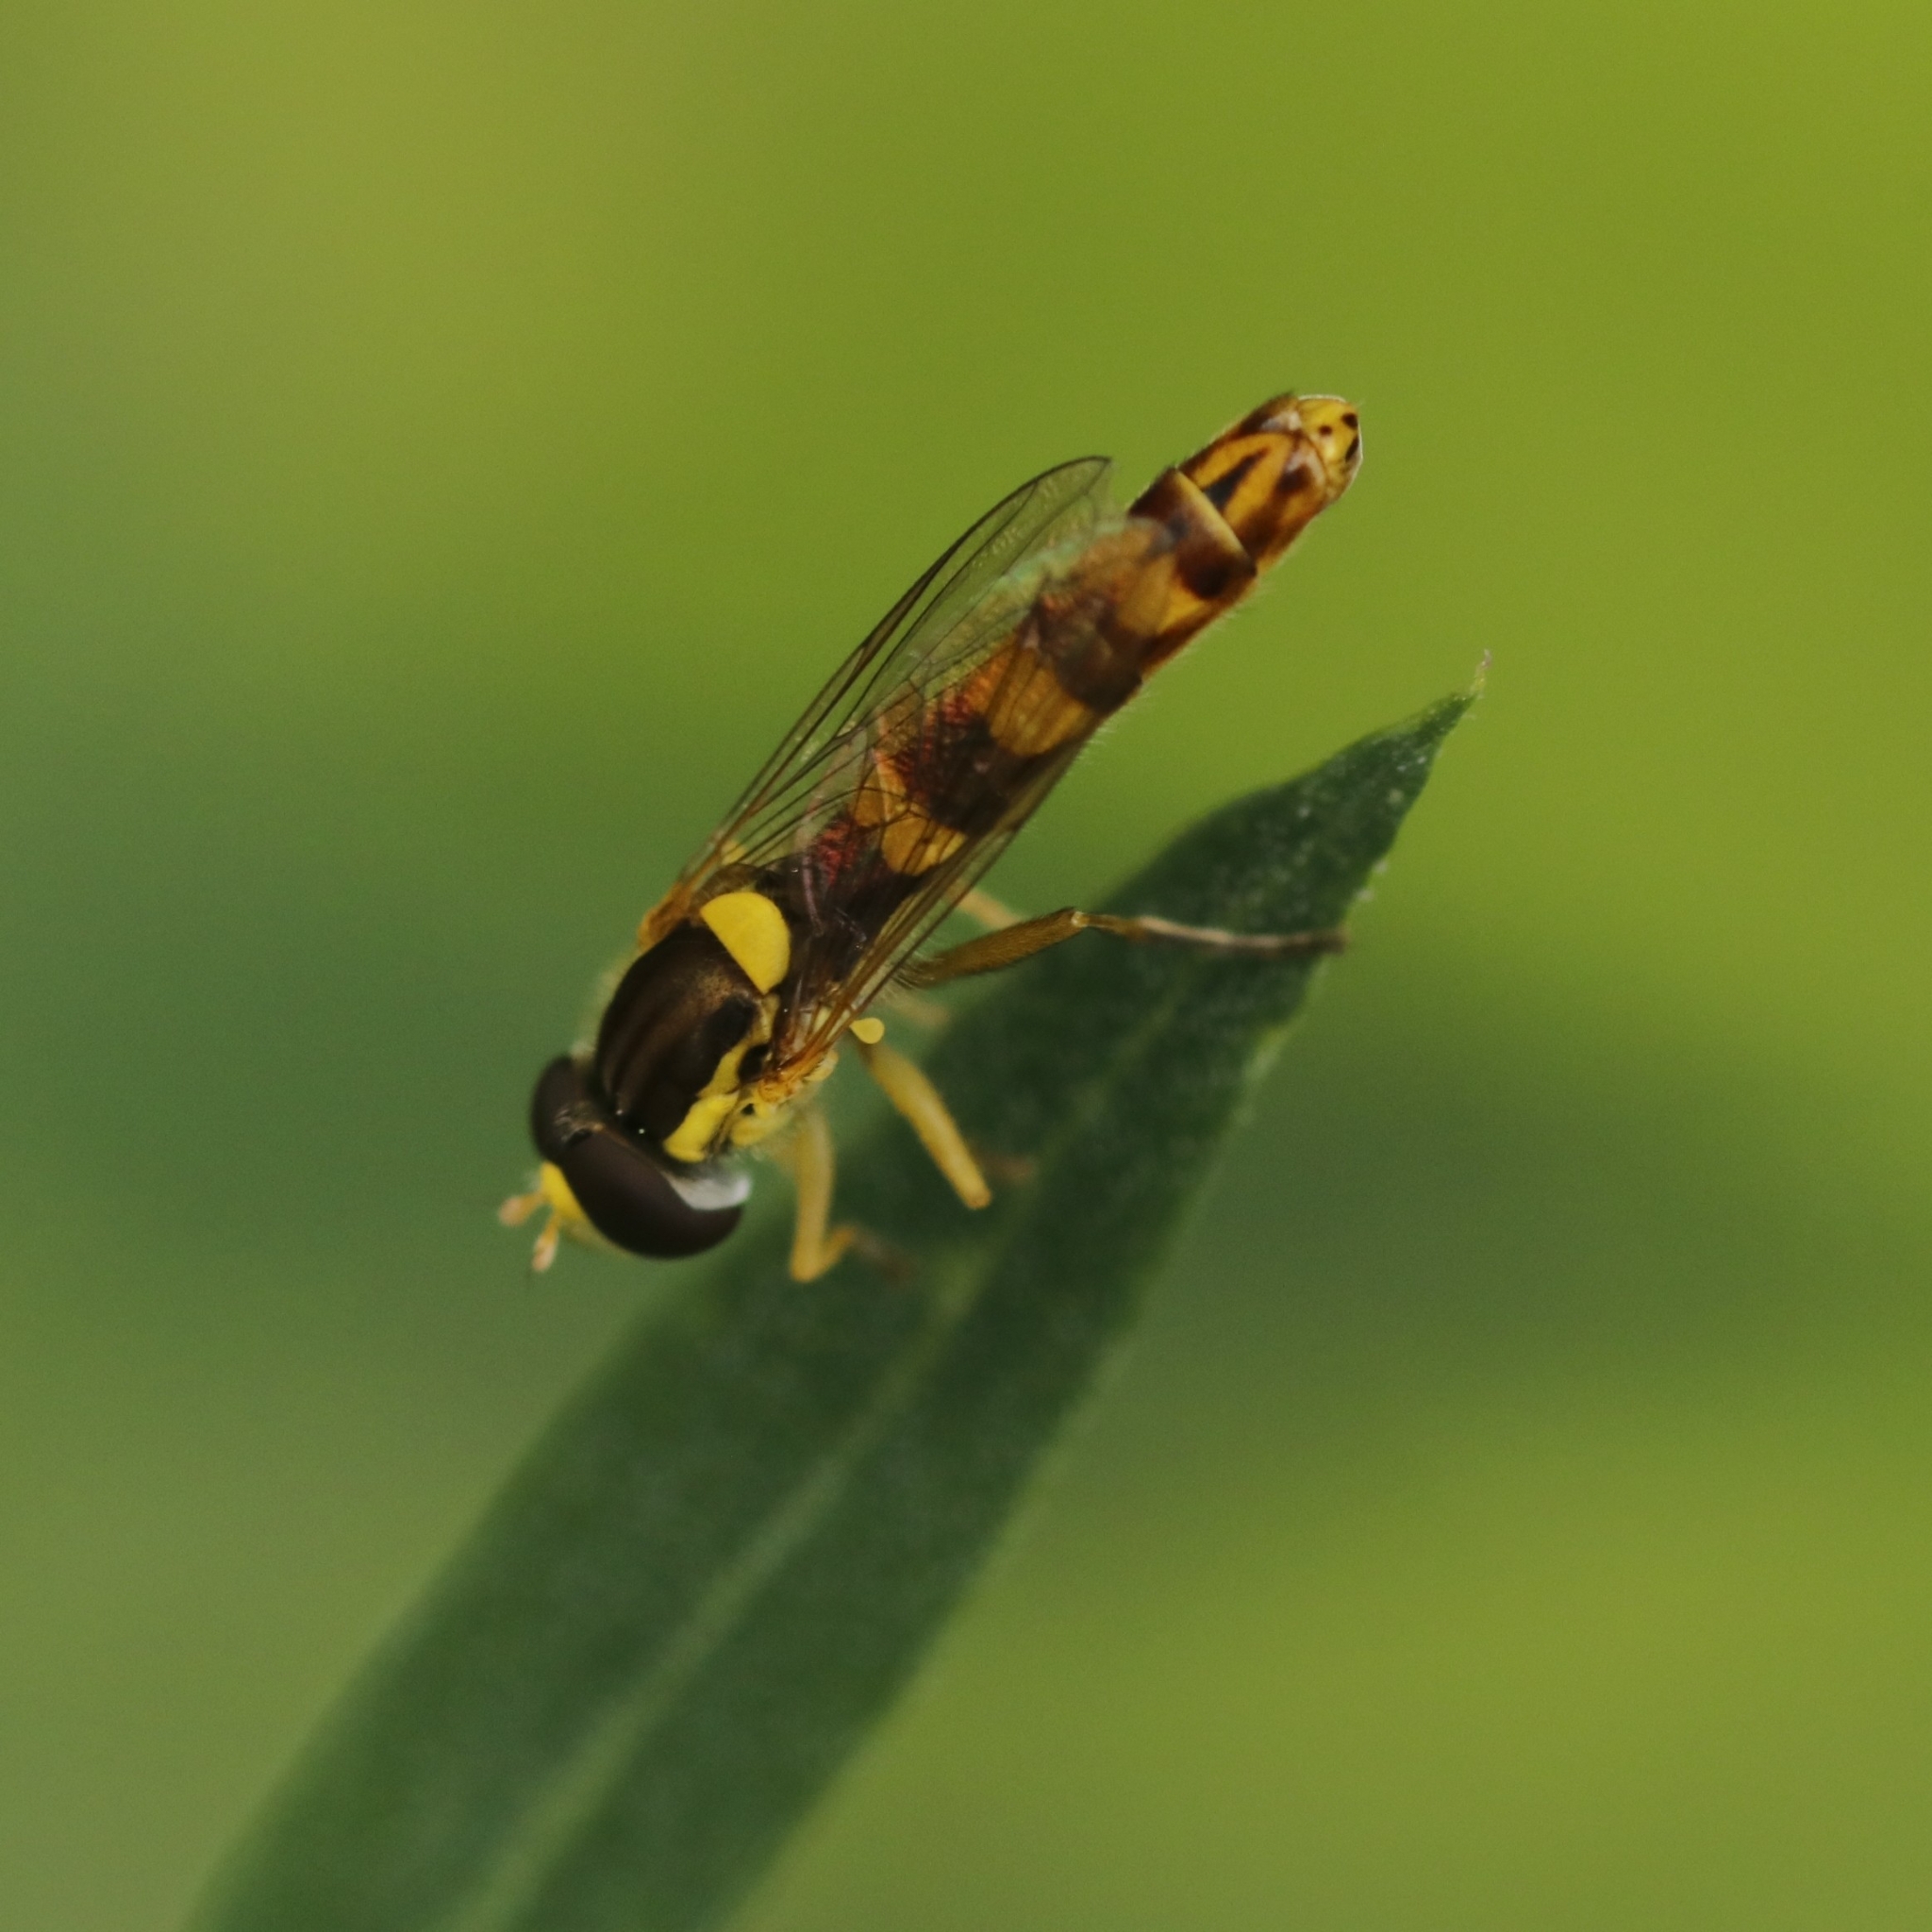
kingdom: Animalia
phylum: Arthropoda
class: Insecta
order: Diptera
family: Syrphidae
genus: Sphaerophoria
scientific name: Sphaerophoria scripta
